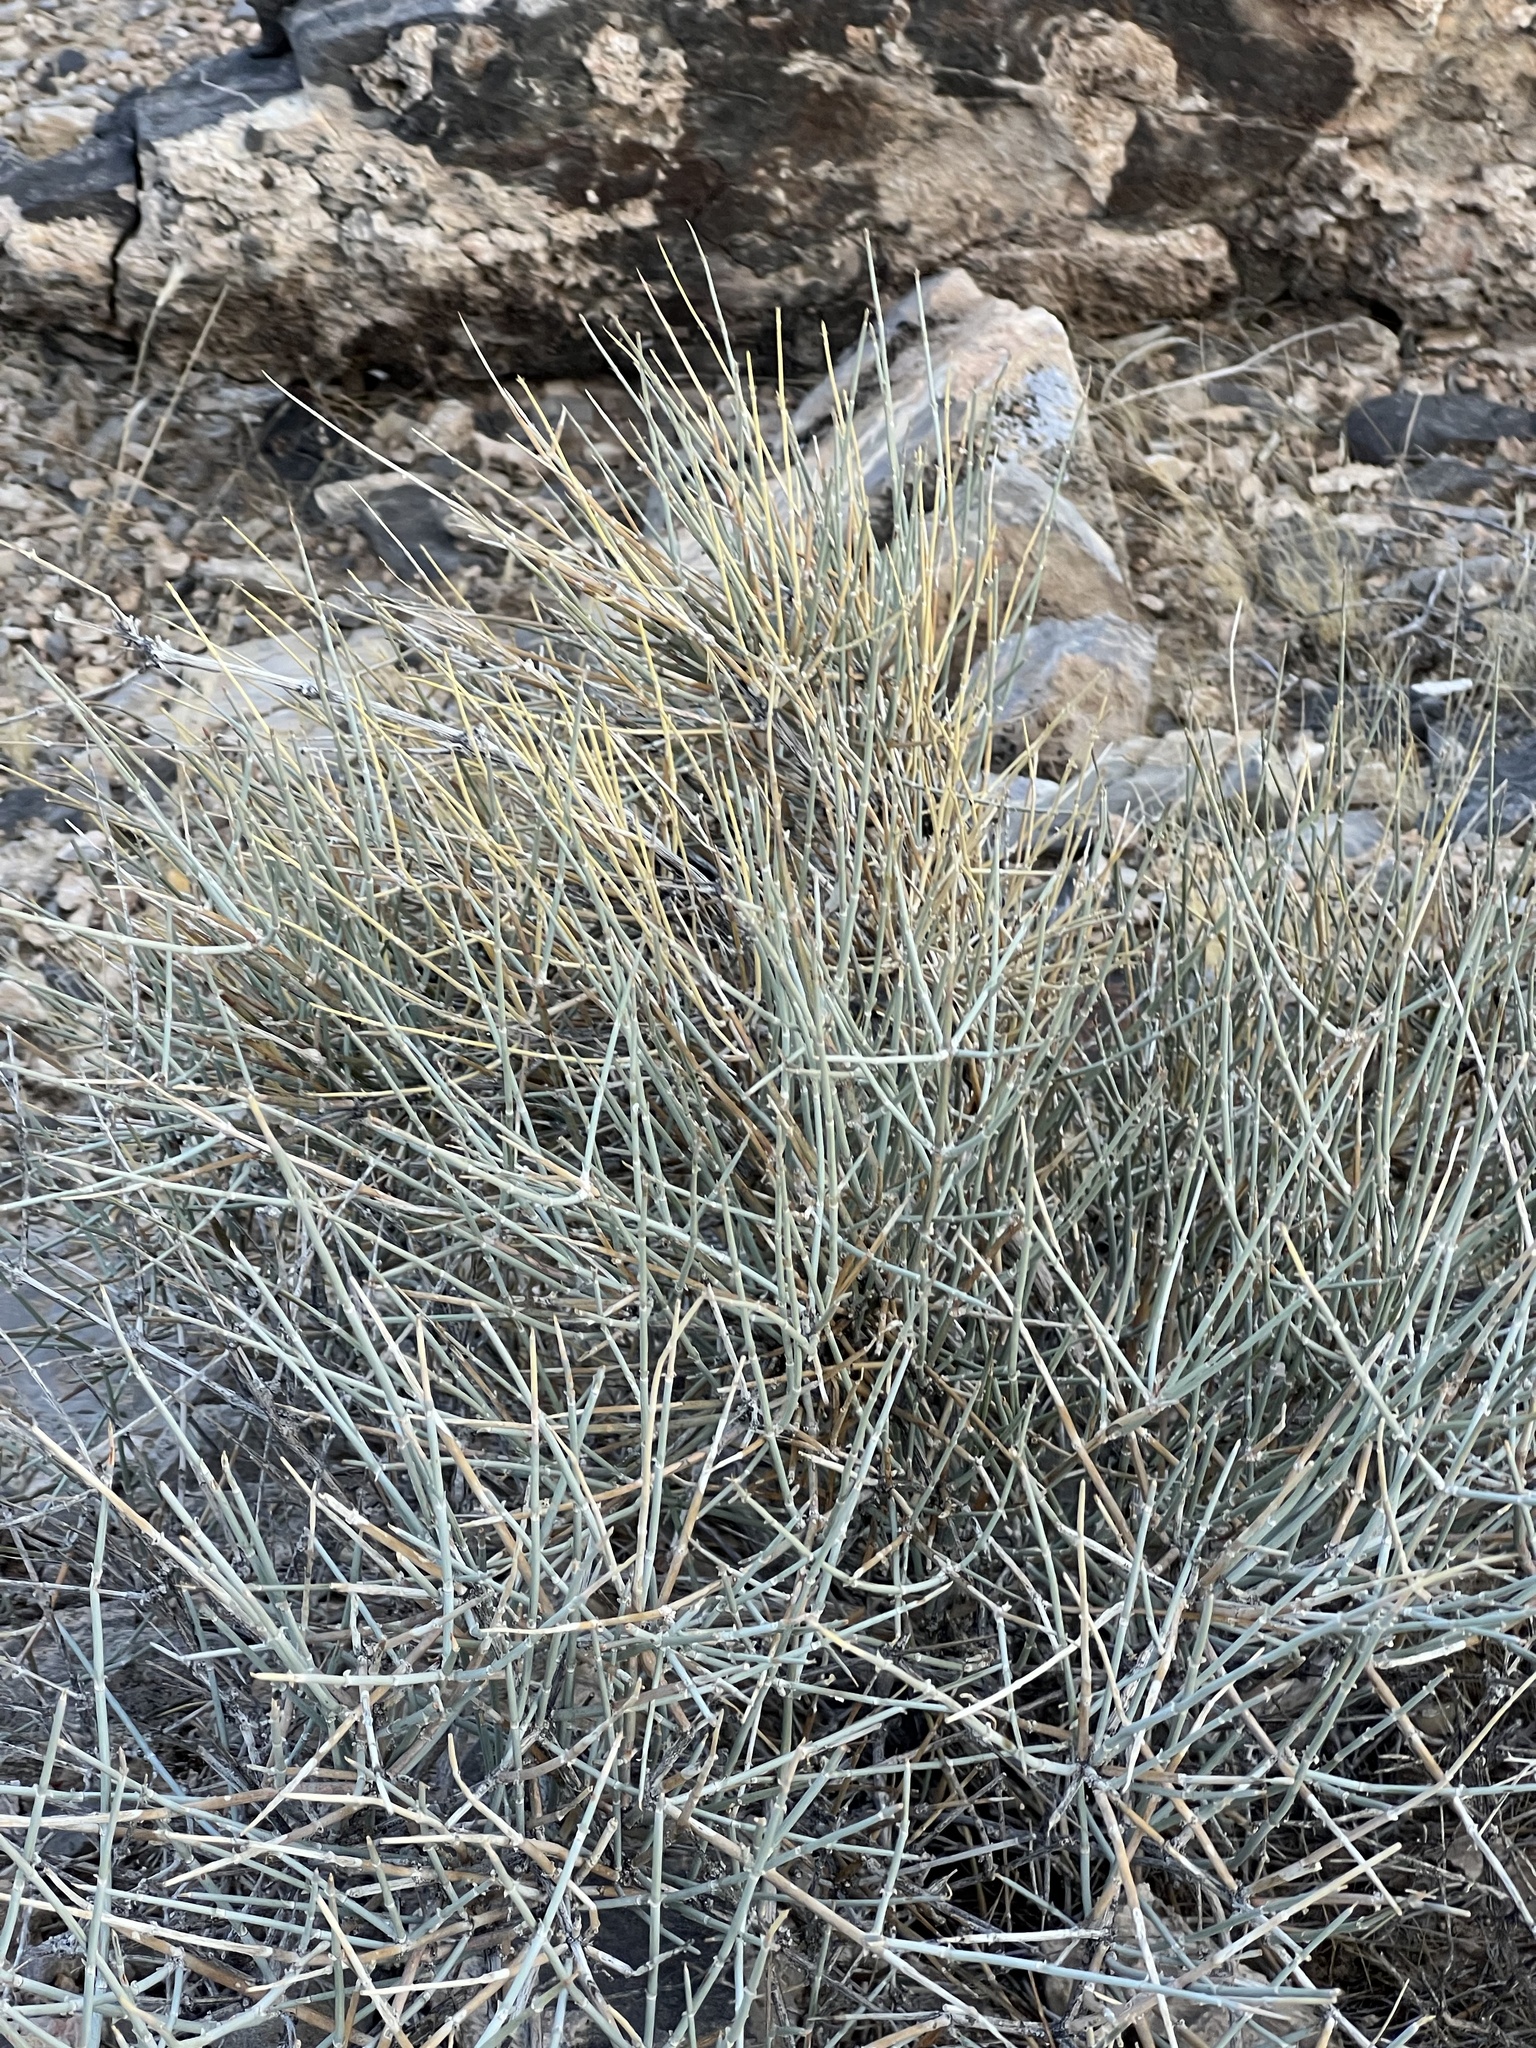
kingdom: Plantae
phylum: Tracheophyta
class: Gnetopsida
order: Ephedrales
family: Ephedraceae
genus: Ephedra
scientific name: Ephedra nevadensis
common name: Gray ephedra
